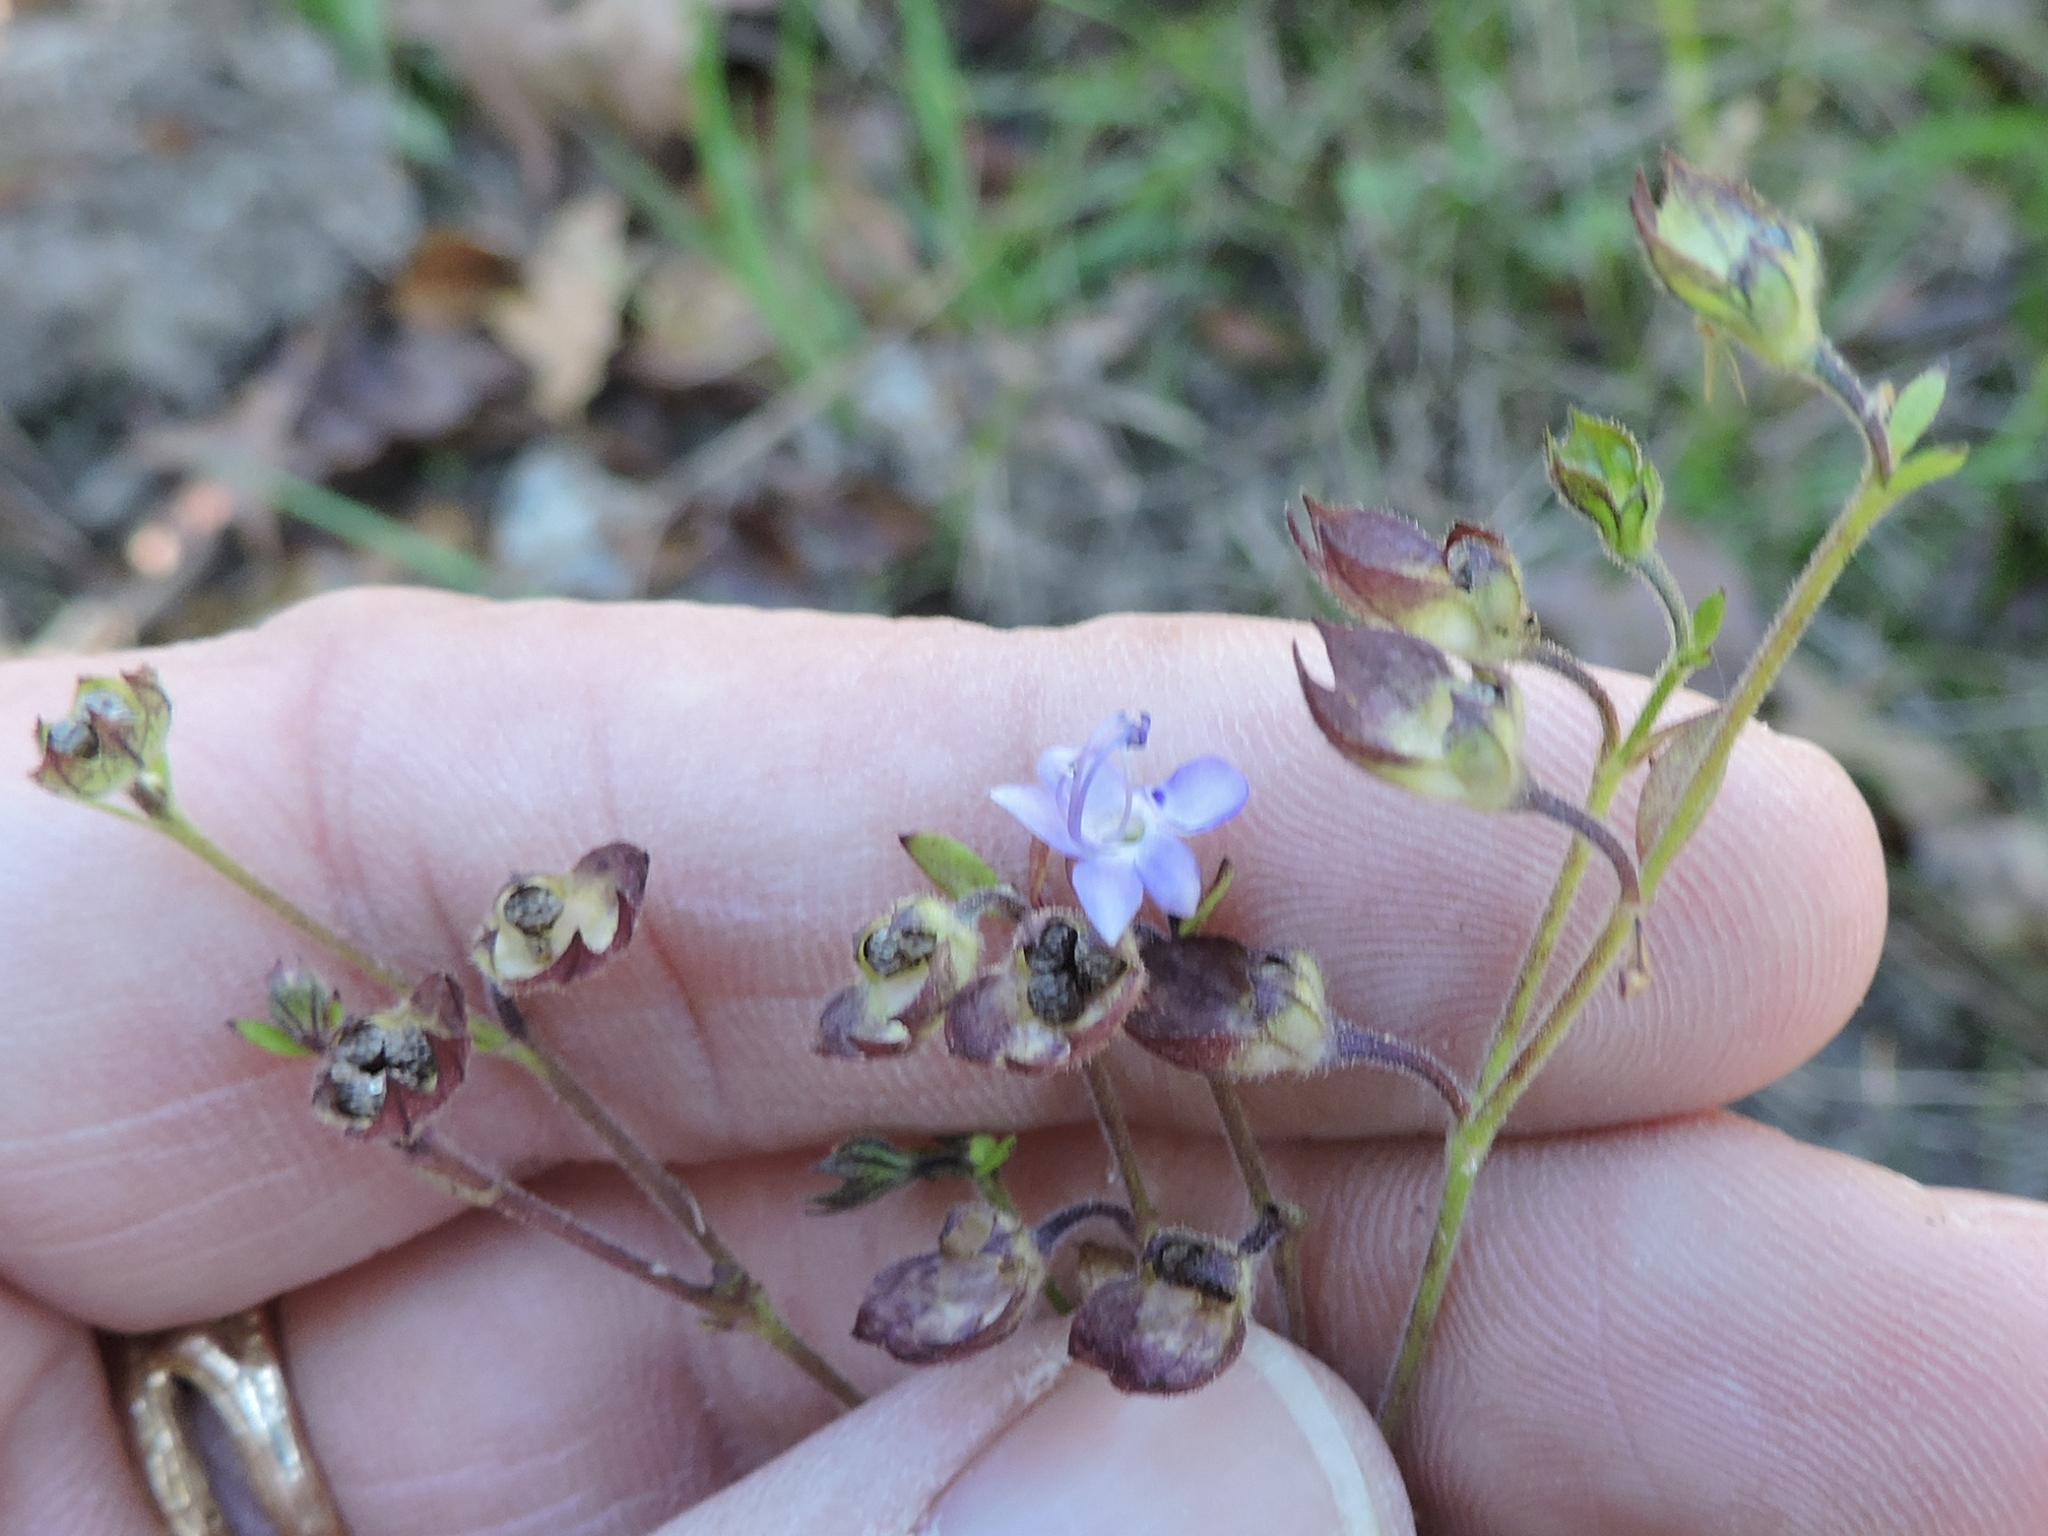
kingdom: Plantae
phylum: Tracheophyta
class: Magnoliopsida
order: Lamiales
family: Lamiaceae
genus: Trichostema
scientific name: Trichostema dichotomum
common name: Bastard pennyroyal
